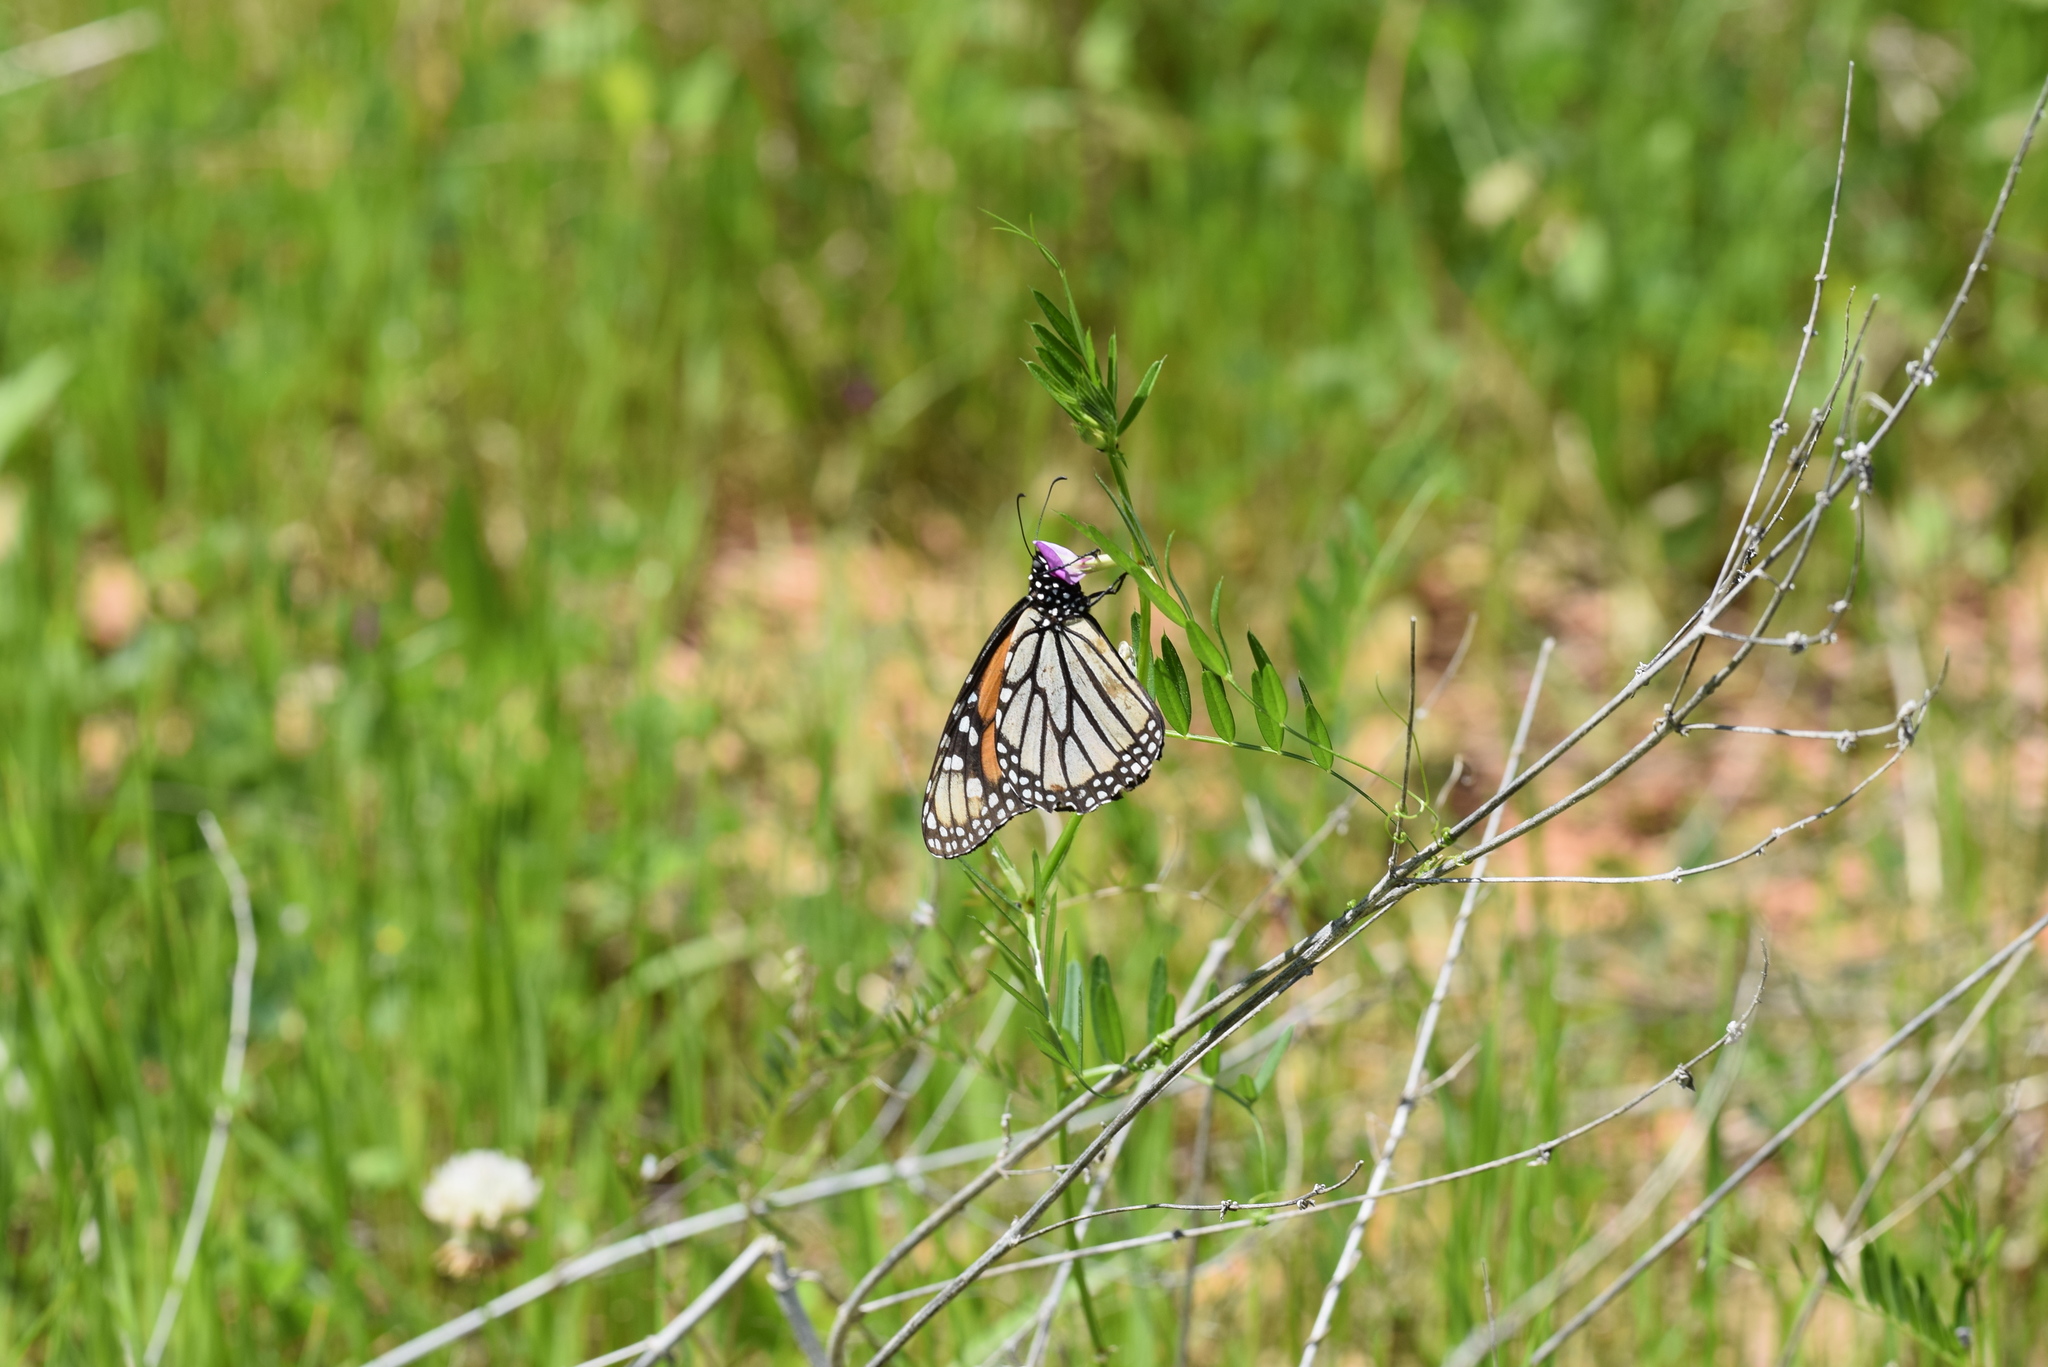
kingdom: Animalia
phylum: Arthropoda
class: Insecta
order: Lepidoptera
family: Nymphalidae
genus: Danaus
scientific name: Danaus plexippus
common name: Monarch
